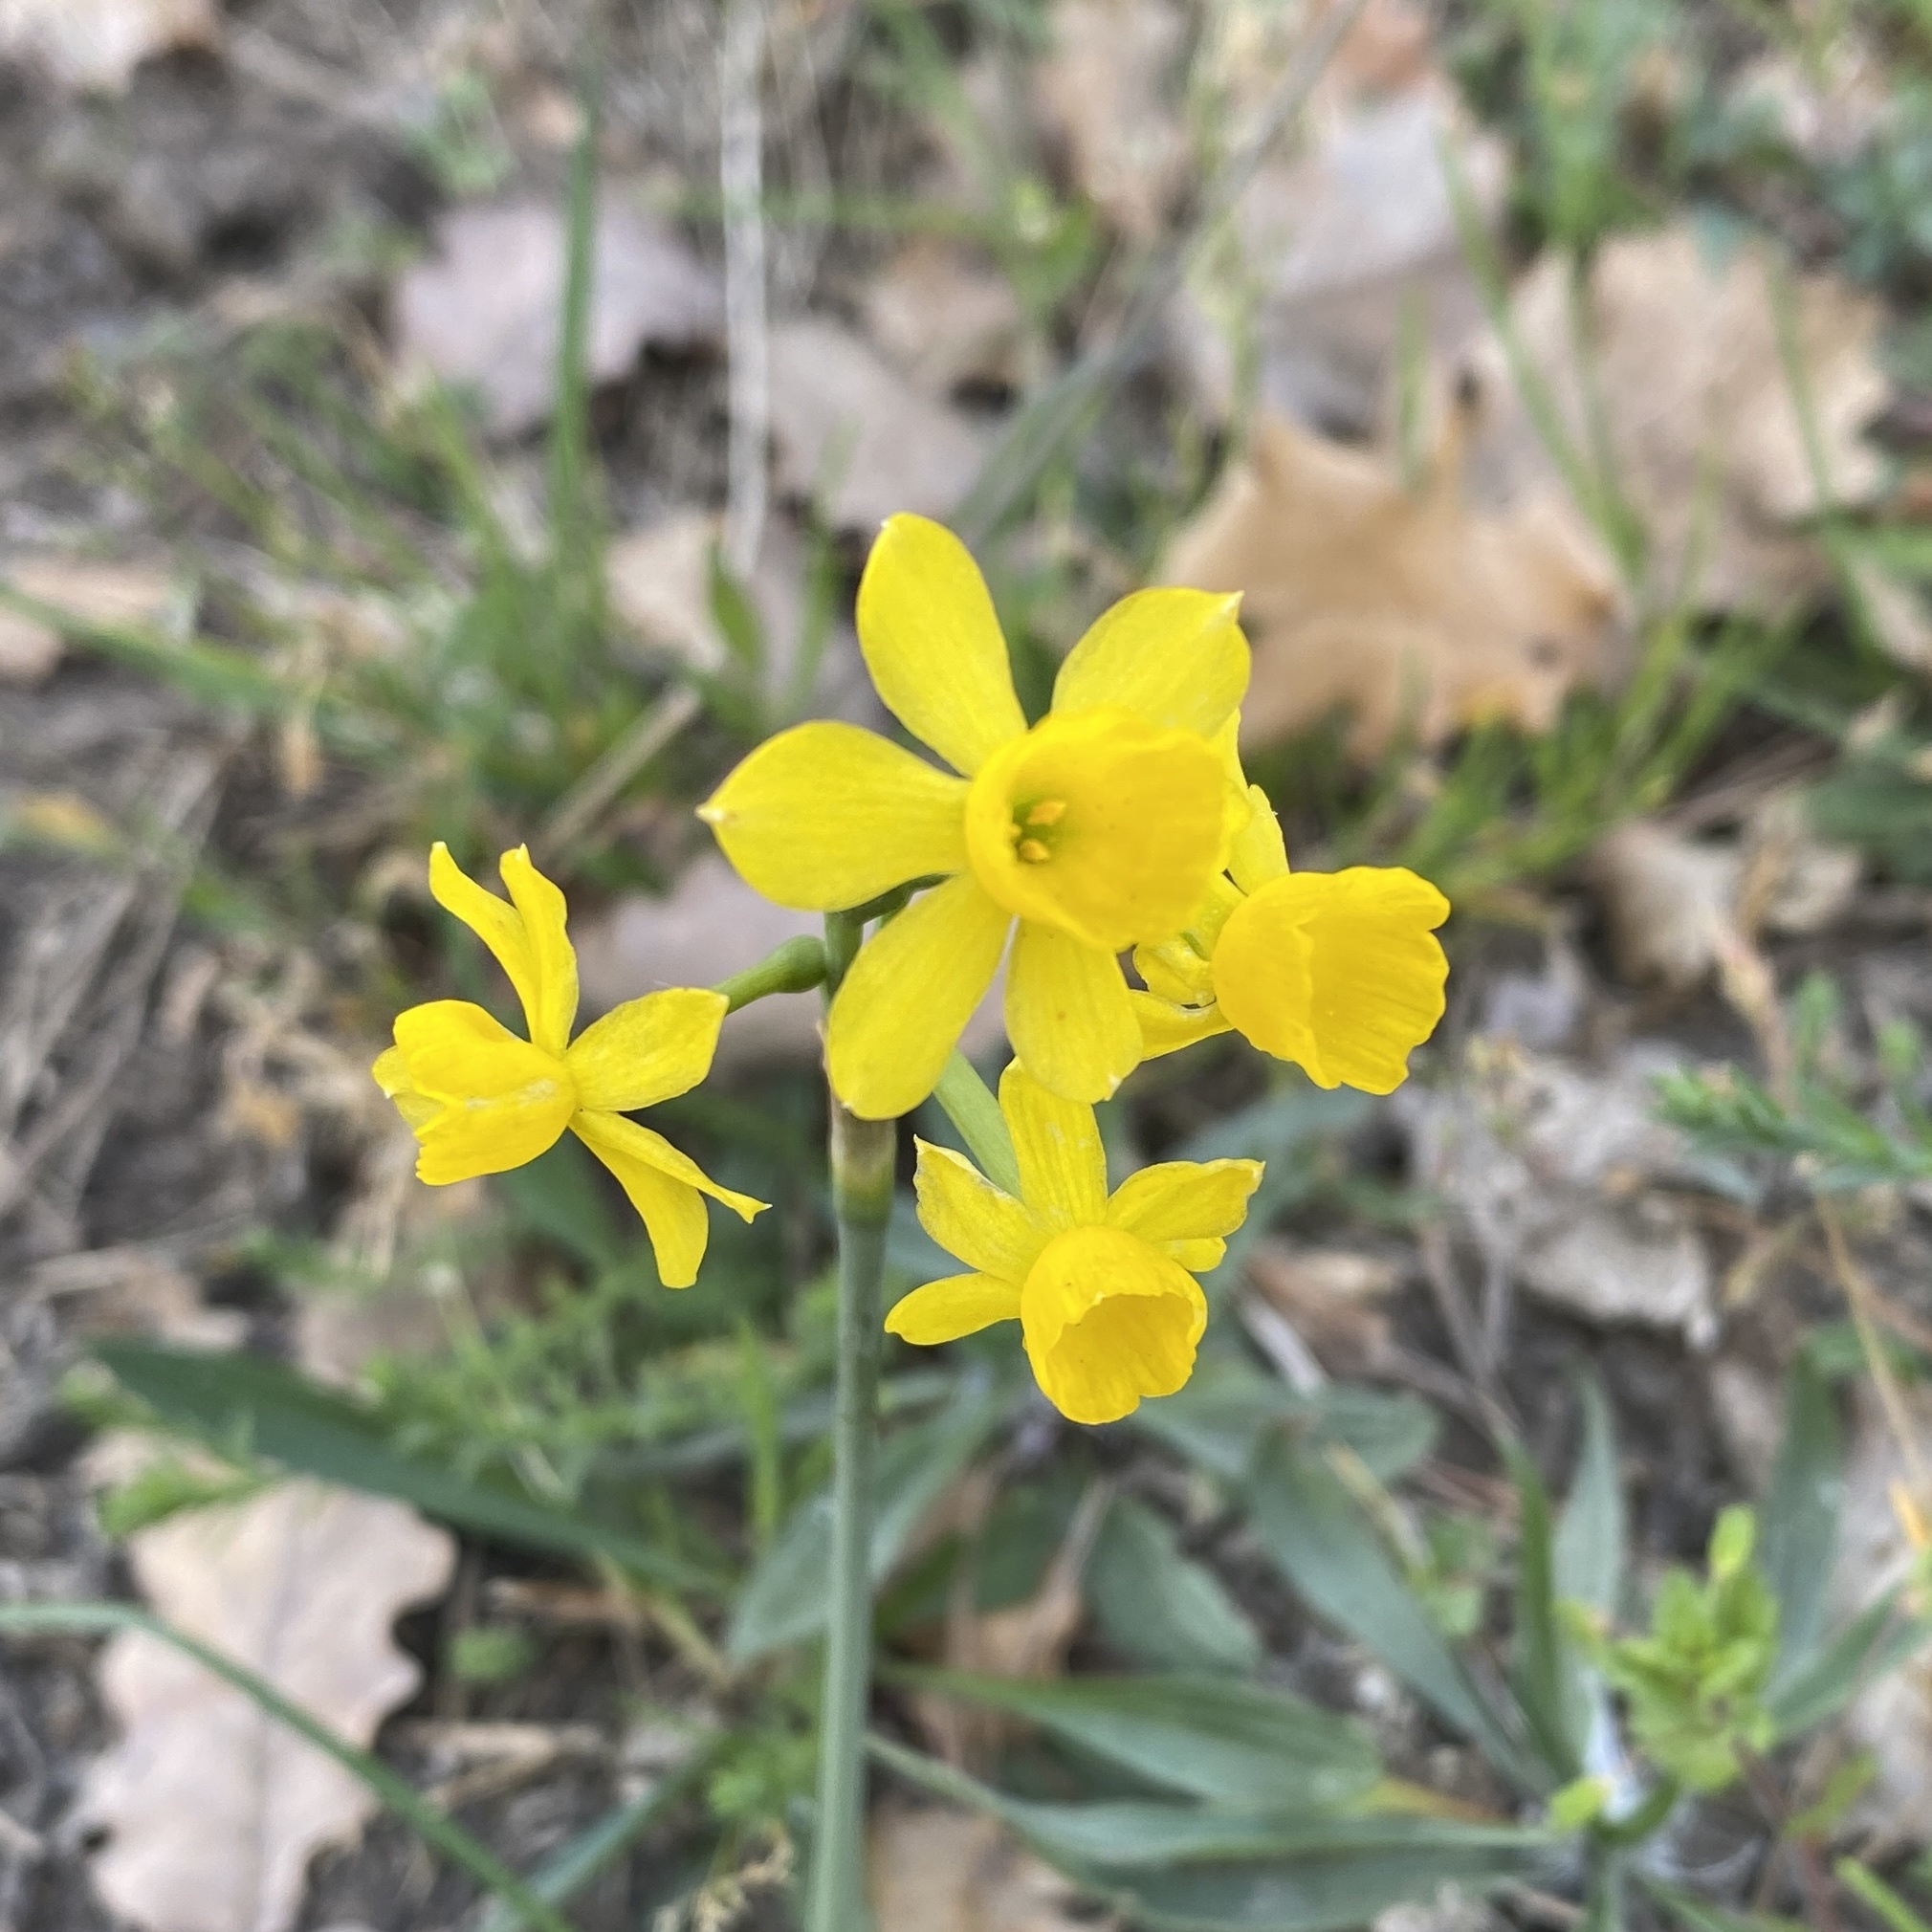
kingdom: Plantae
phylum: Tracheophyta
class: Liliopsida
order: Asparagales
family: Amaryllidaceae
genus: Narcissus
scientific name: Narcissus assoanus
